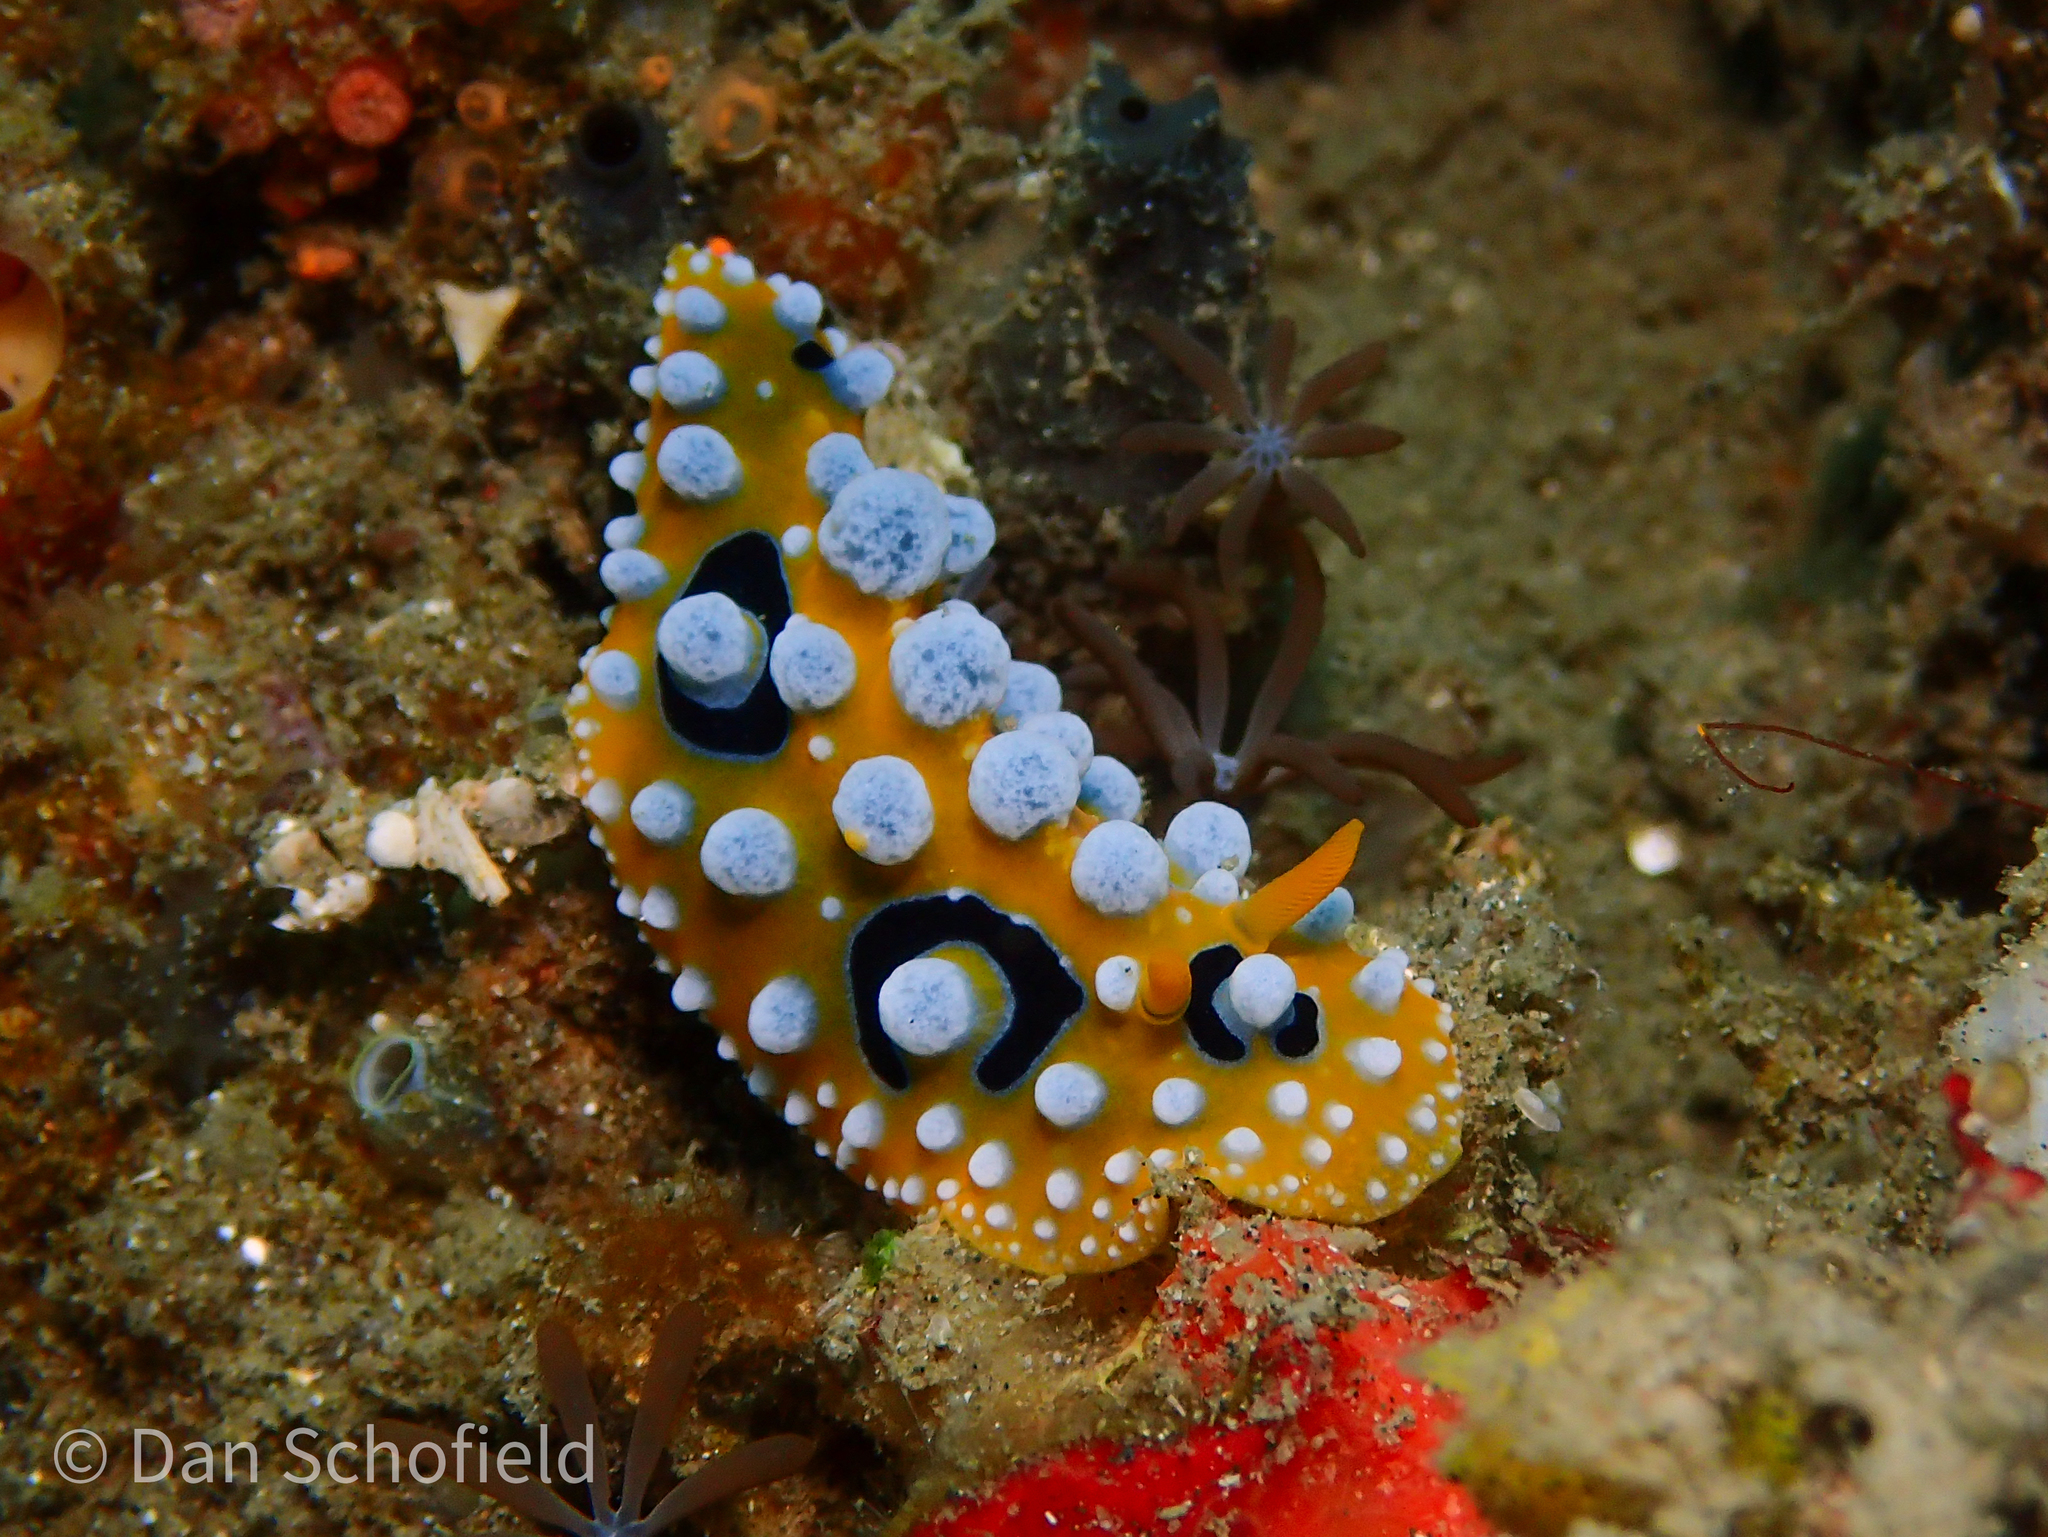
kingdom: Animalia
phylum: Mollusca
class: Gastropoda
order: Nudibranchia
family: Phyllidiidae
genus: Phyllidia
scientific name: Phyllidia ocellata
